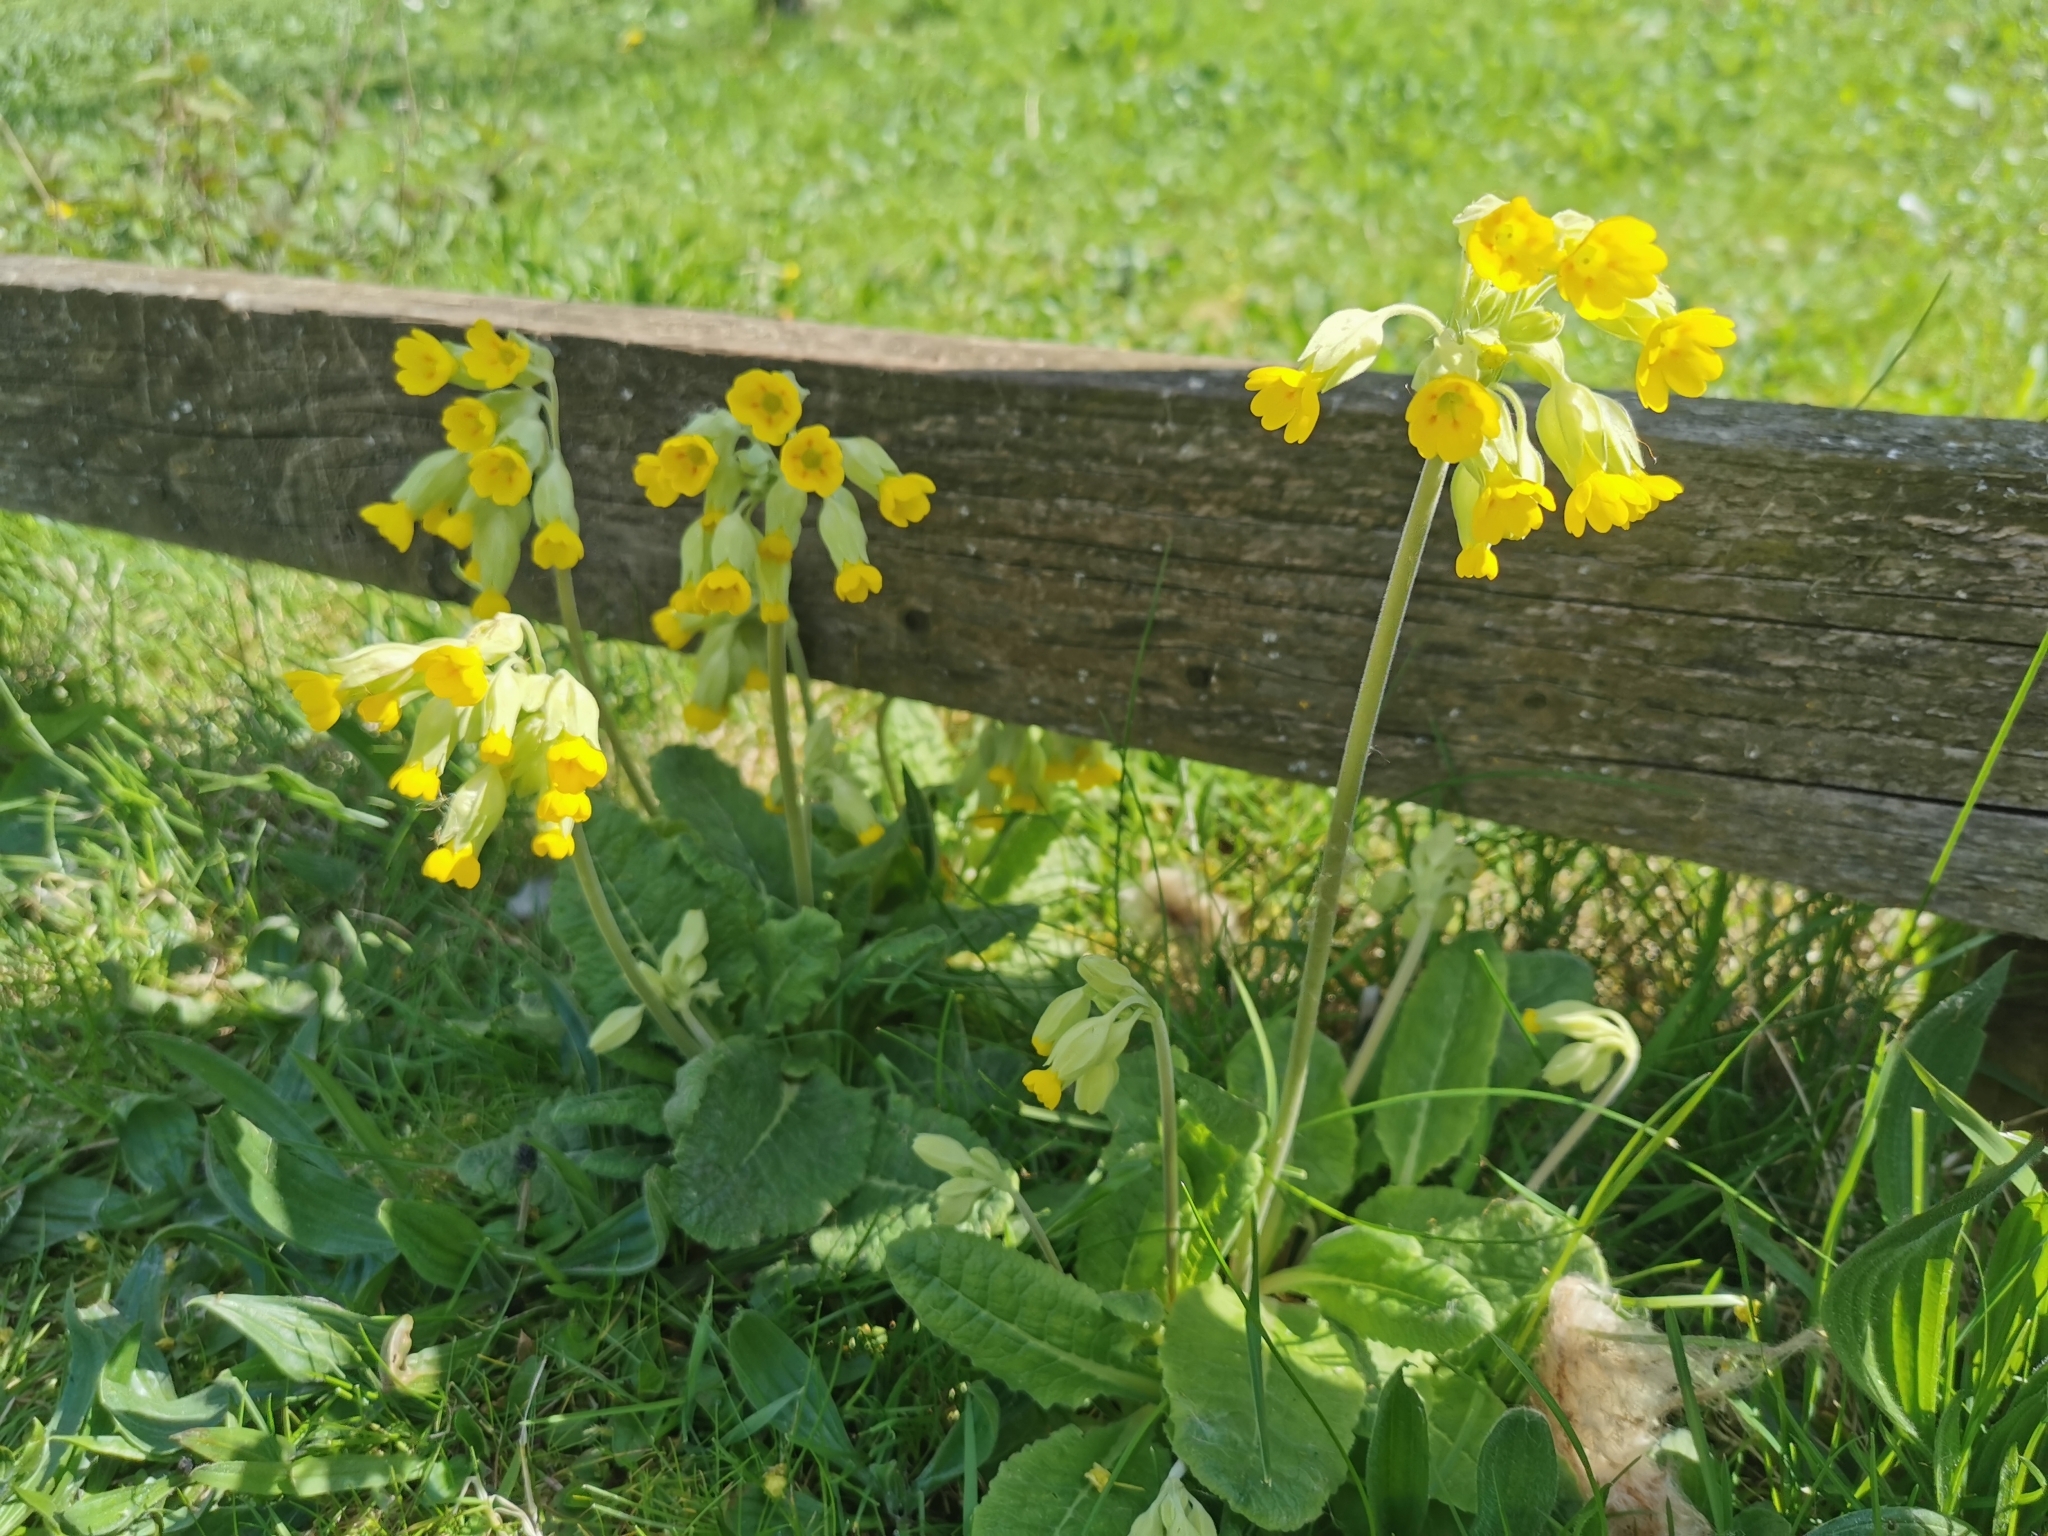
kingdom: Plantae
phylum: Tracheophyta
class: Magnoliopsida
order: Ericales
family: Primulaceae
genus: Primula
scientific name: Primula veris
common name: Cowslip
